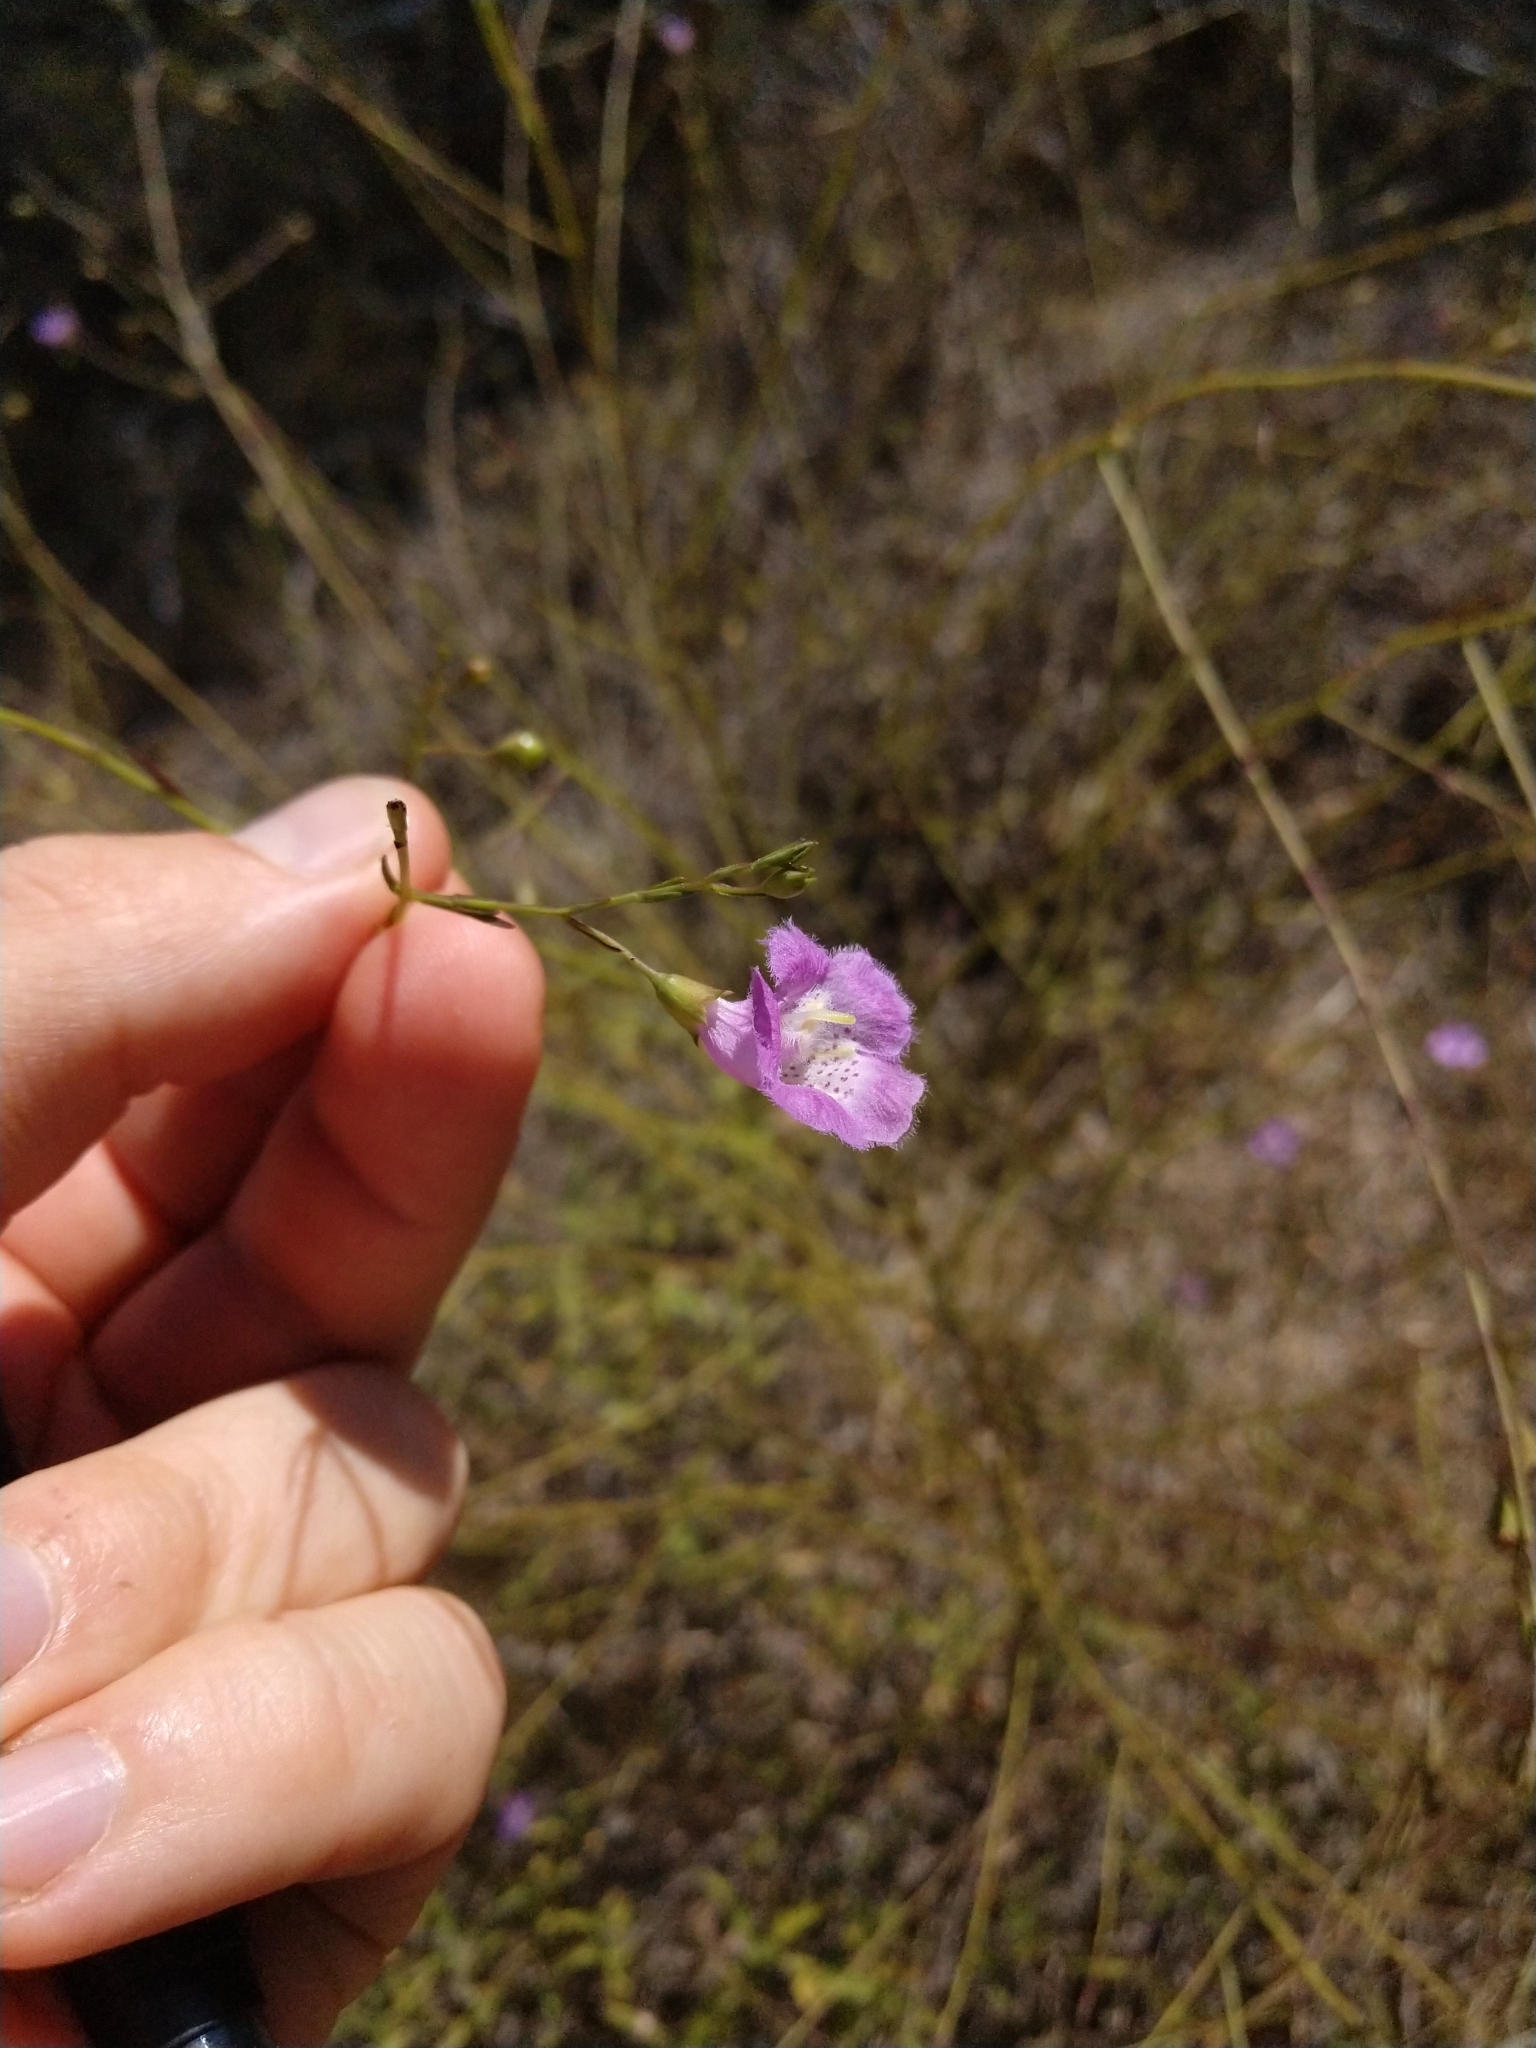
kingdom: Plantae
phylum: Tracheophyta
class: Magnoliopsida
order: Lamiales
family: Orobanchaceae
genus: Agalinis
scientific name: Agalinis strictifolia
